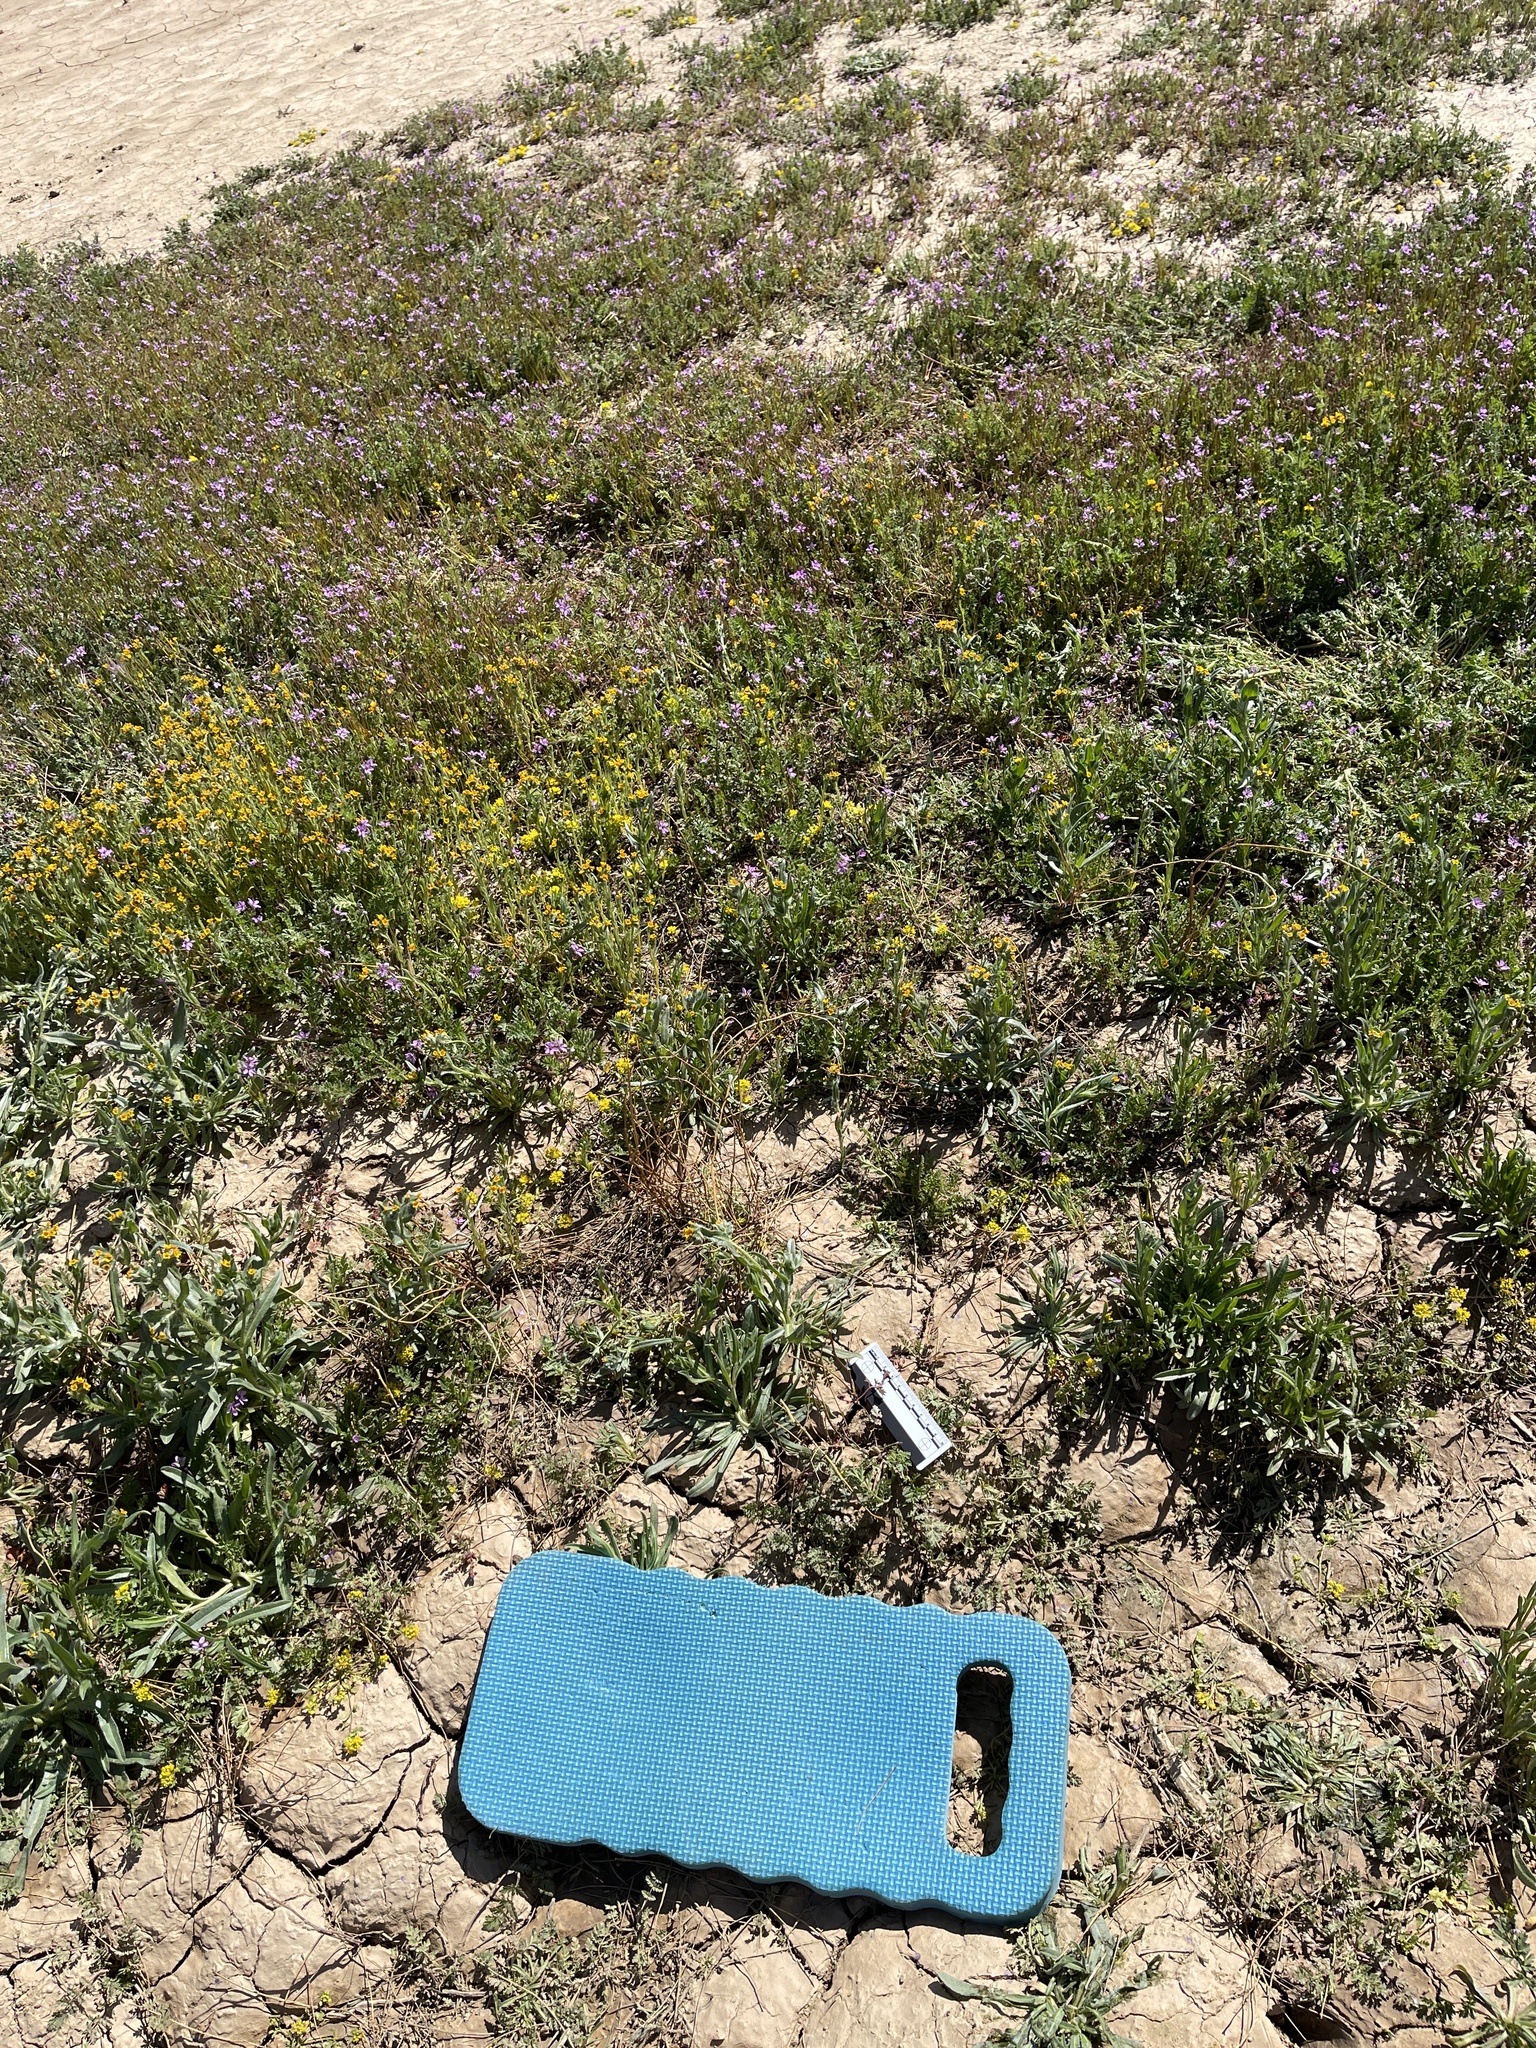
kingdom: Plantae
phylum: Tracheophyta
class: Magnoliopsida
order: Fabales
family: Fabaceae
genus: Hoffmannseggia
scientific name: Hoffmannseggia glauca
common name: Pignut
